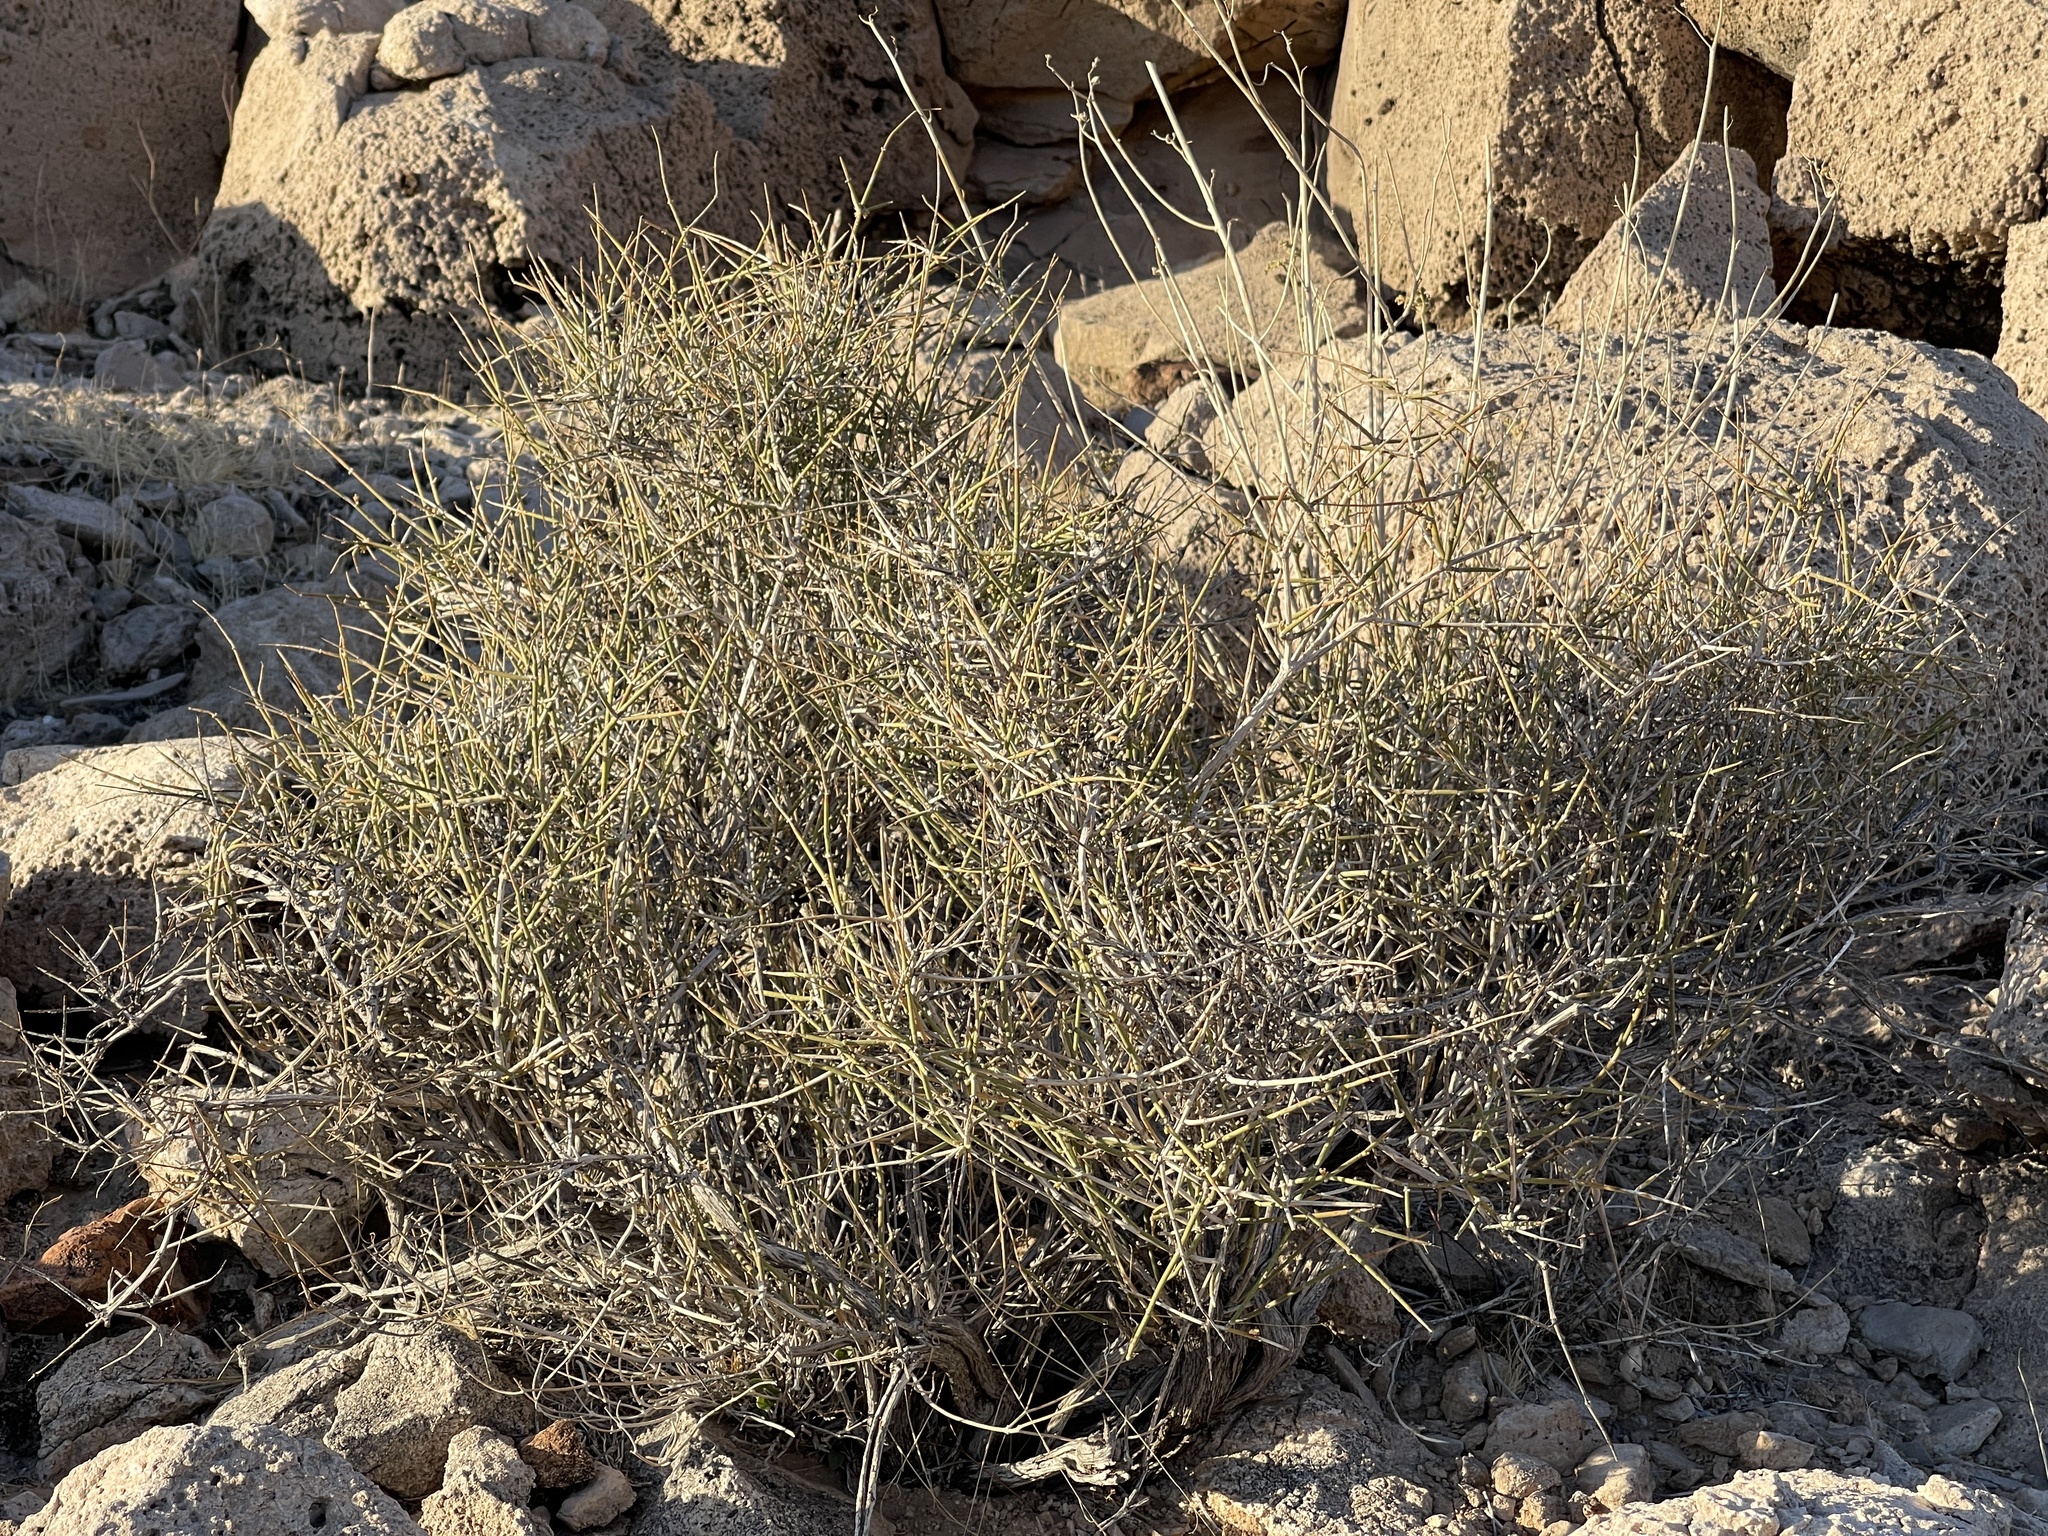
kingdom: Plantae
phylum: Tracheophyta
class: Gnetopsida
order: Ephedrales
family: Ephedraceae
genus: Ephedra
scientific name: Ephedra nevadensis
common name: Gray ephedra
